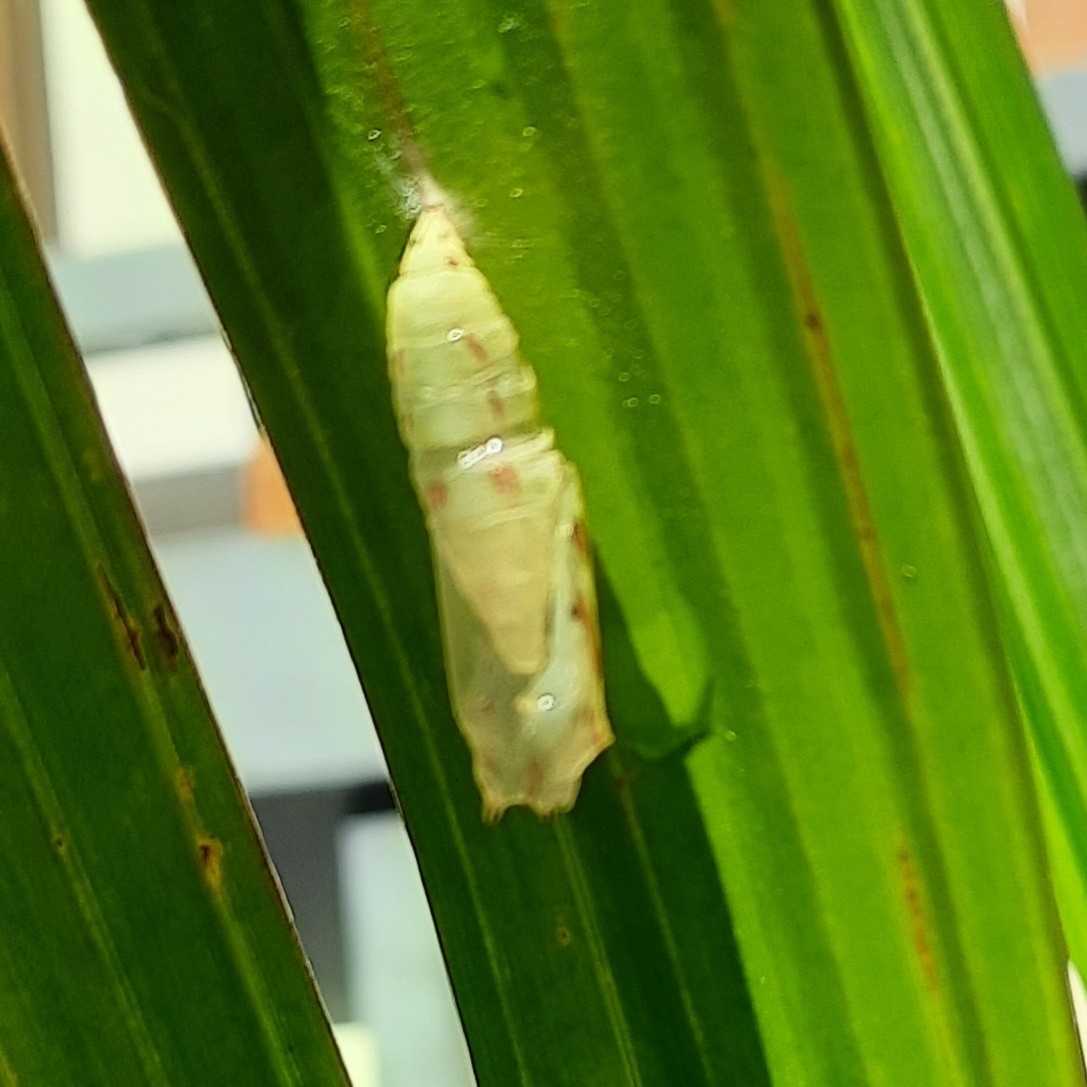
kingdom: Animalia
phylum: Arthropoda
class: Insecta
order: Lepidoptera
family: Nymphalidae
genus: Elymnias
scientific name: Elymnias caudata
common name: Tailed palmfly
